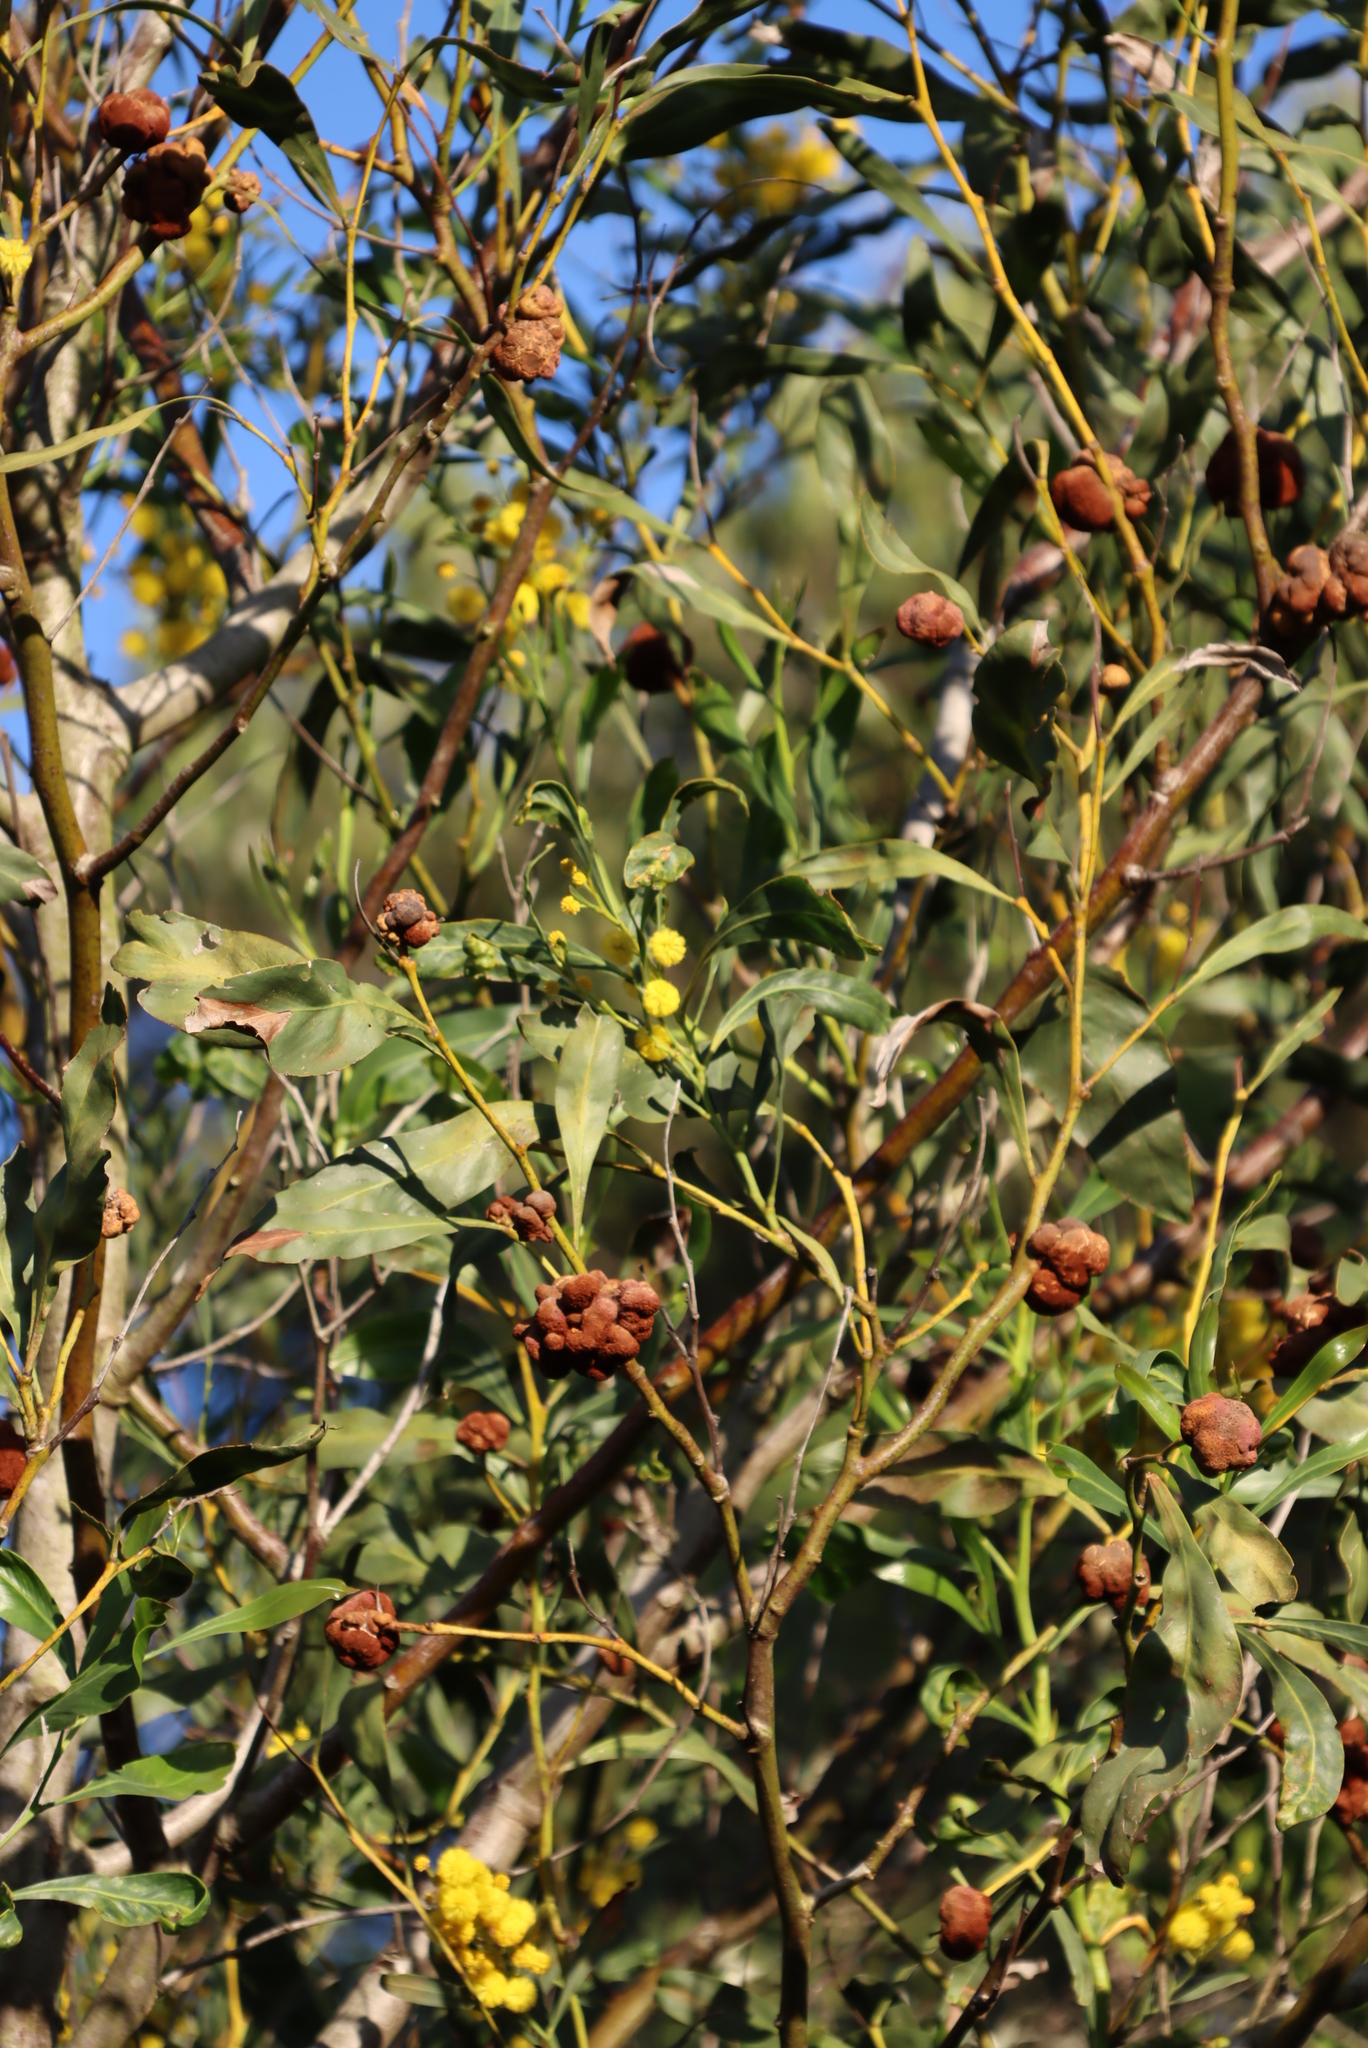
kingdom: Plantae
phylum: Tracheophyta
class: Magnoliopsida
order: Fabales
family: Fabaceae
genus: Acacia
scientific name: Acacia saligna
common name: Orange wattle
